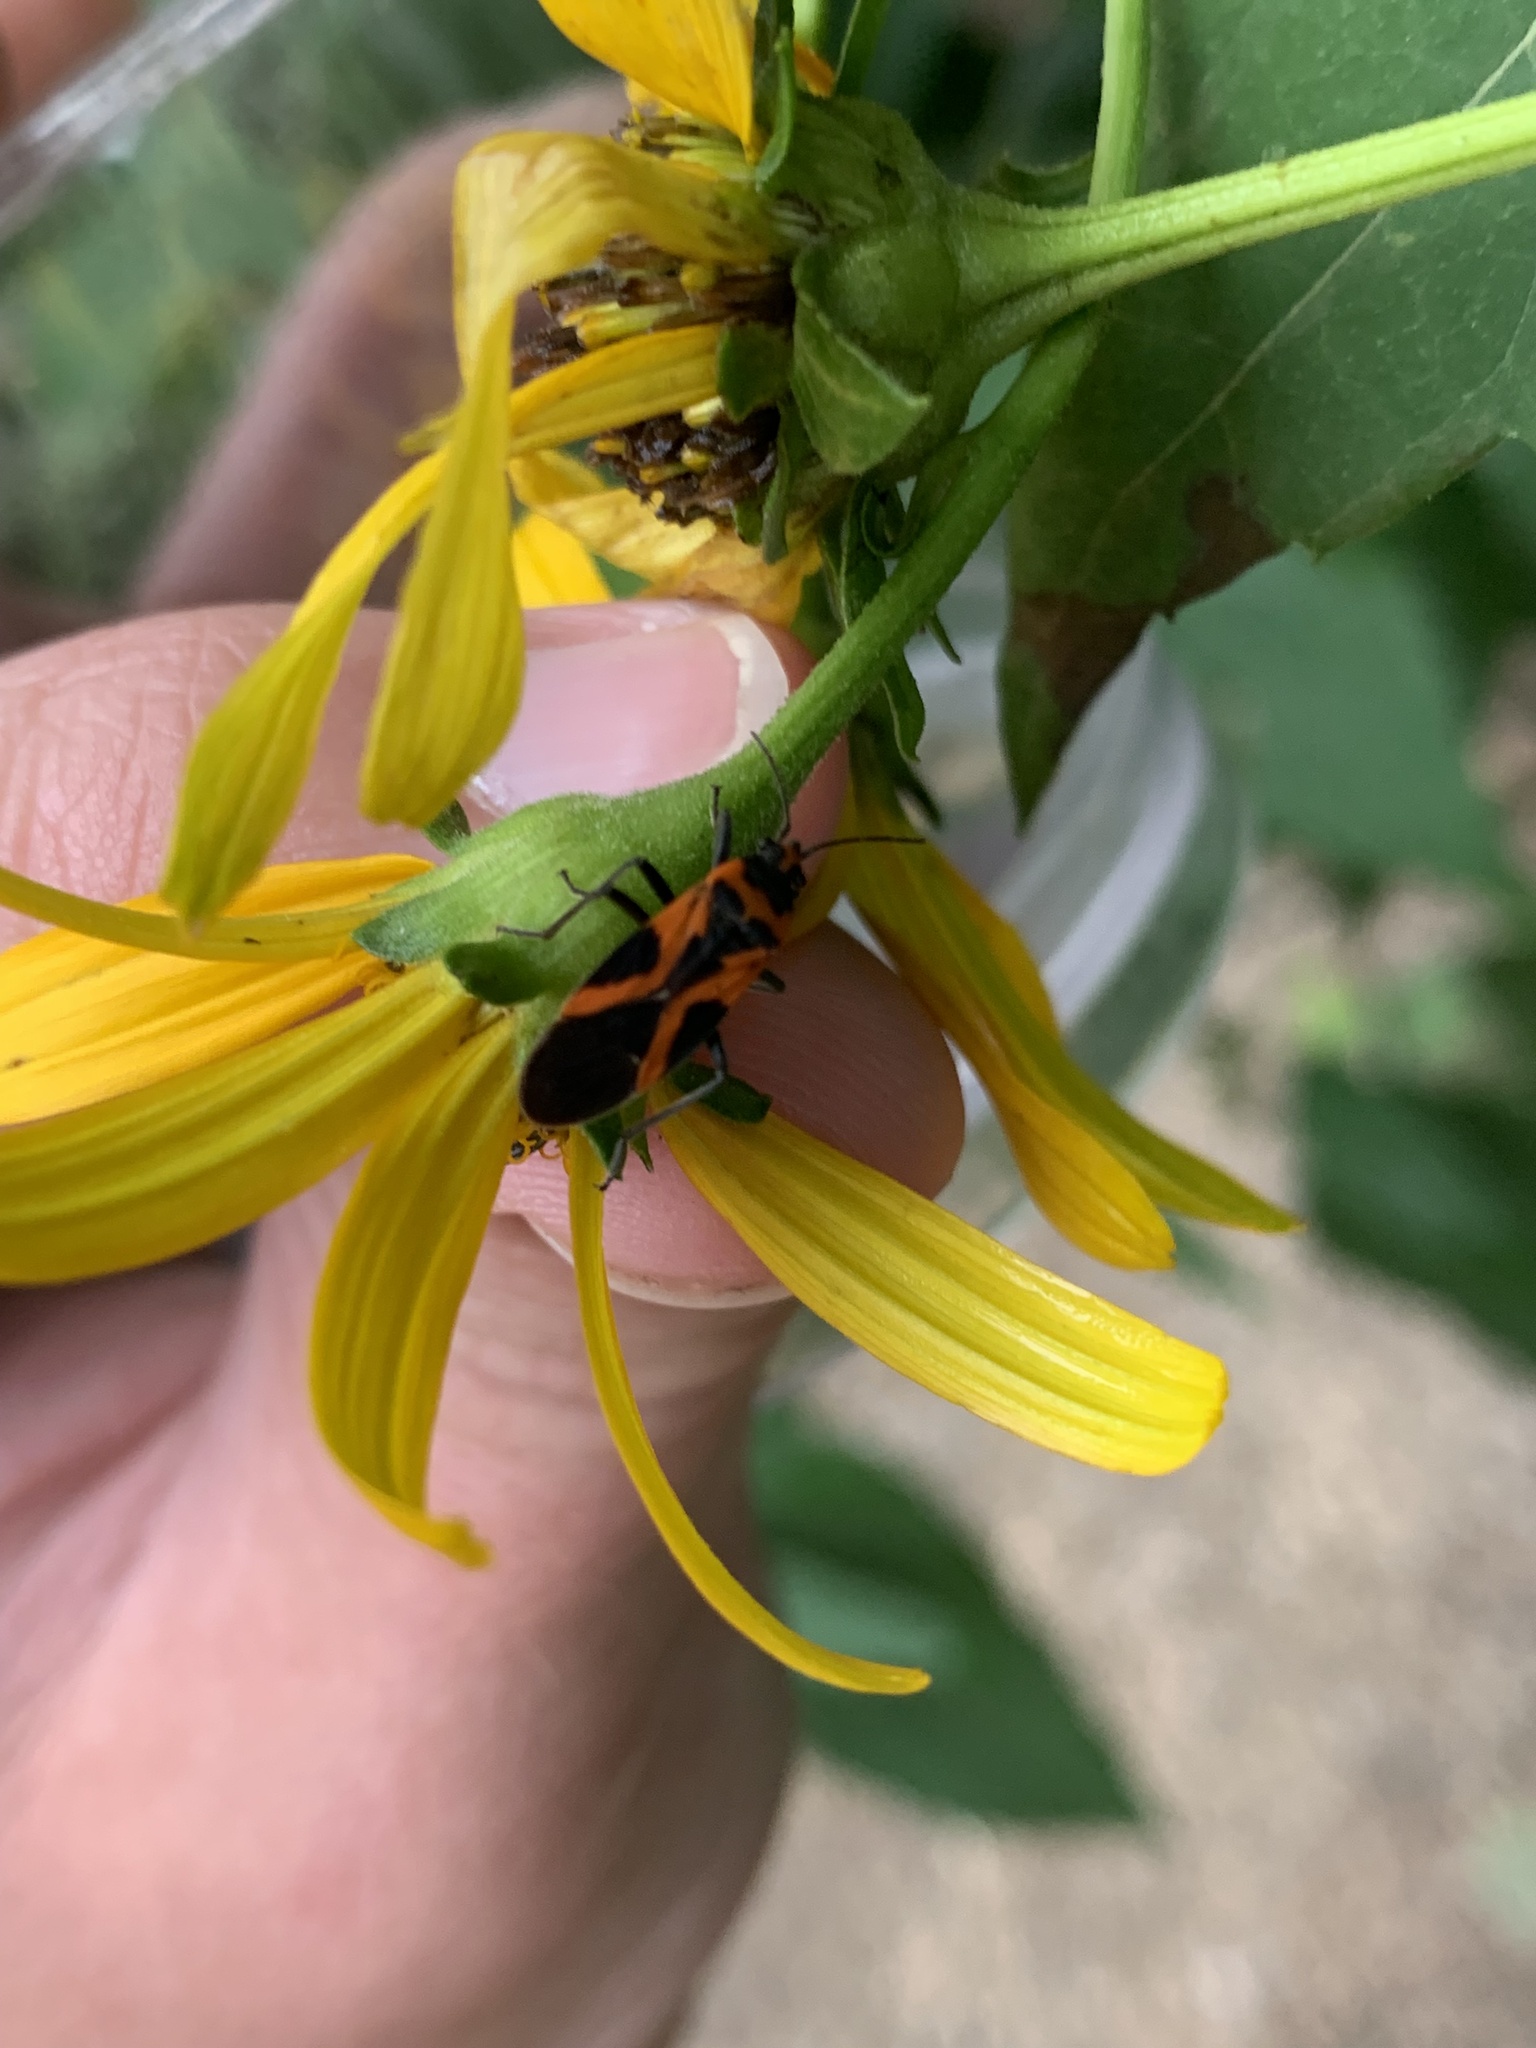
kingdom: Animalia
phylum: Arthropoda
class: Insecta
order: Hemiptera
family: Lygaeidae
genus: Lygaeus
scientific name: Lygaeus turcicus
